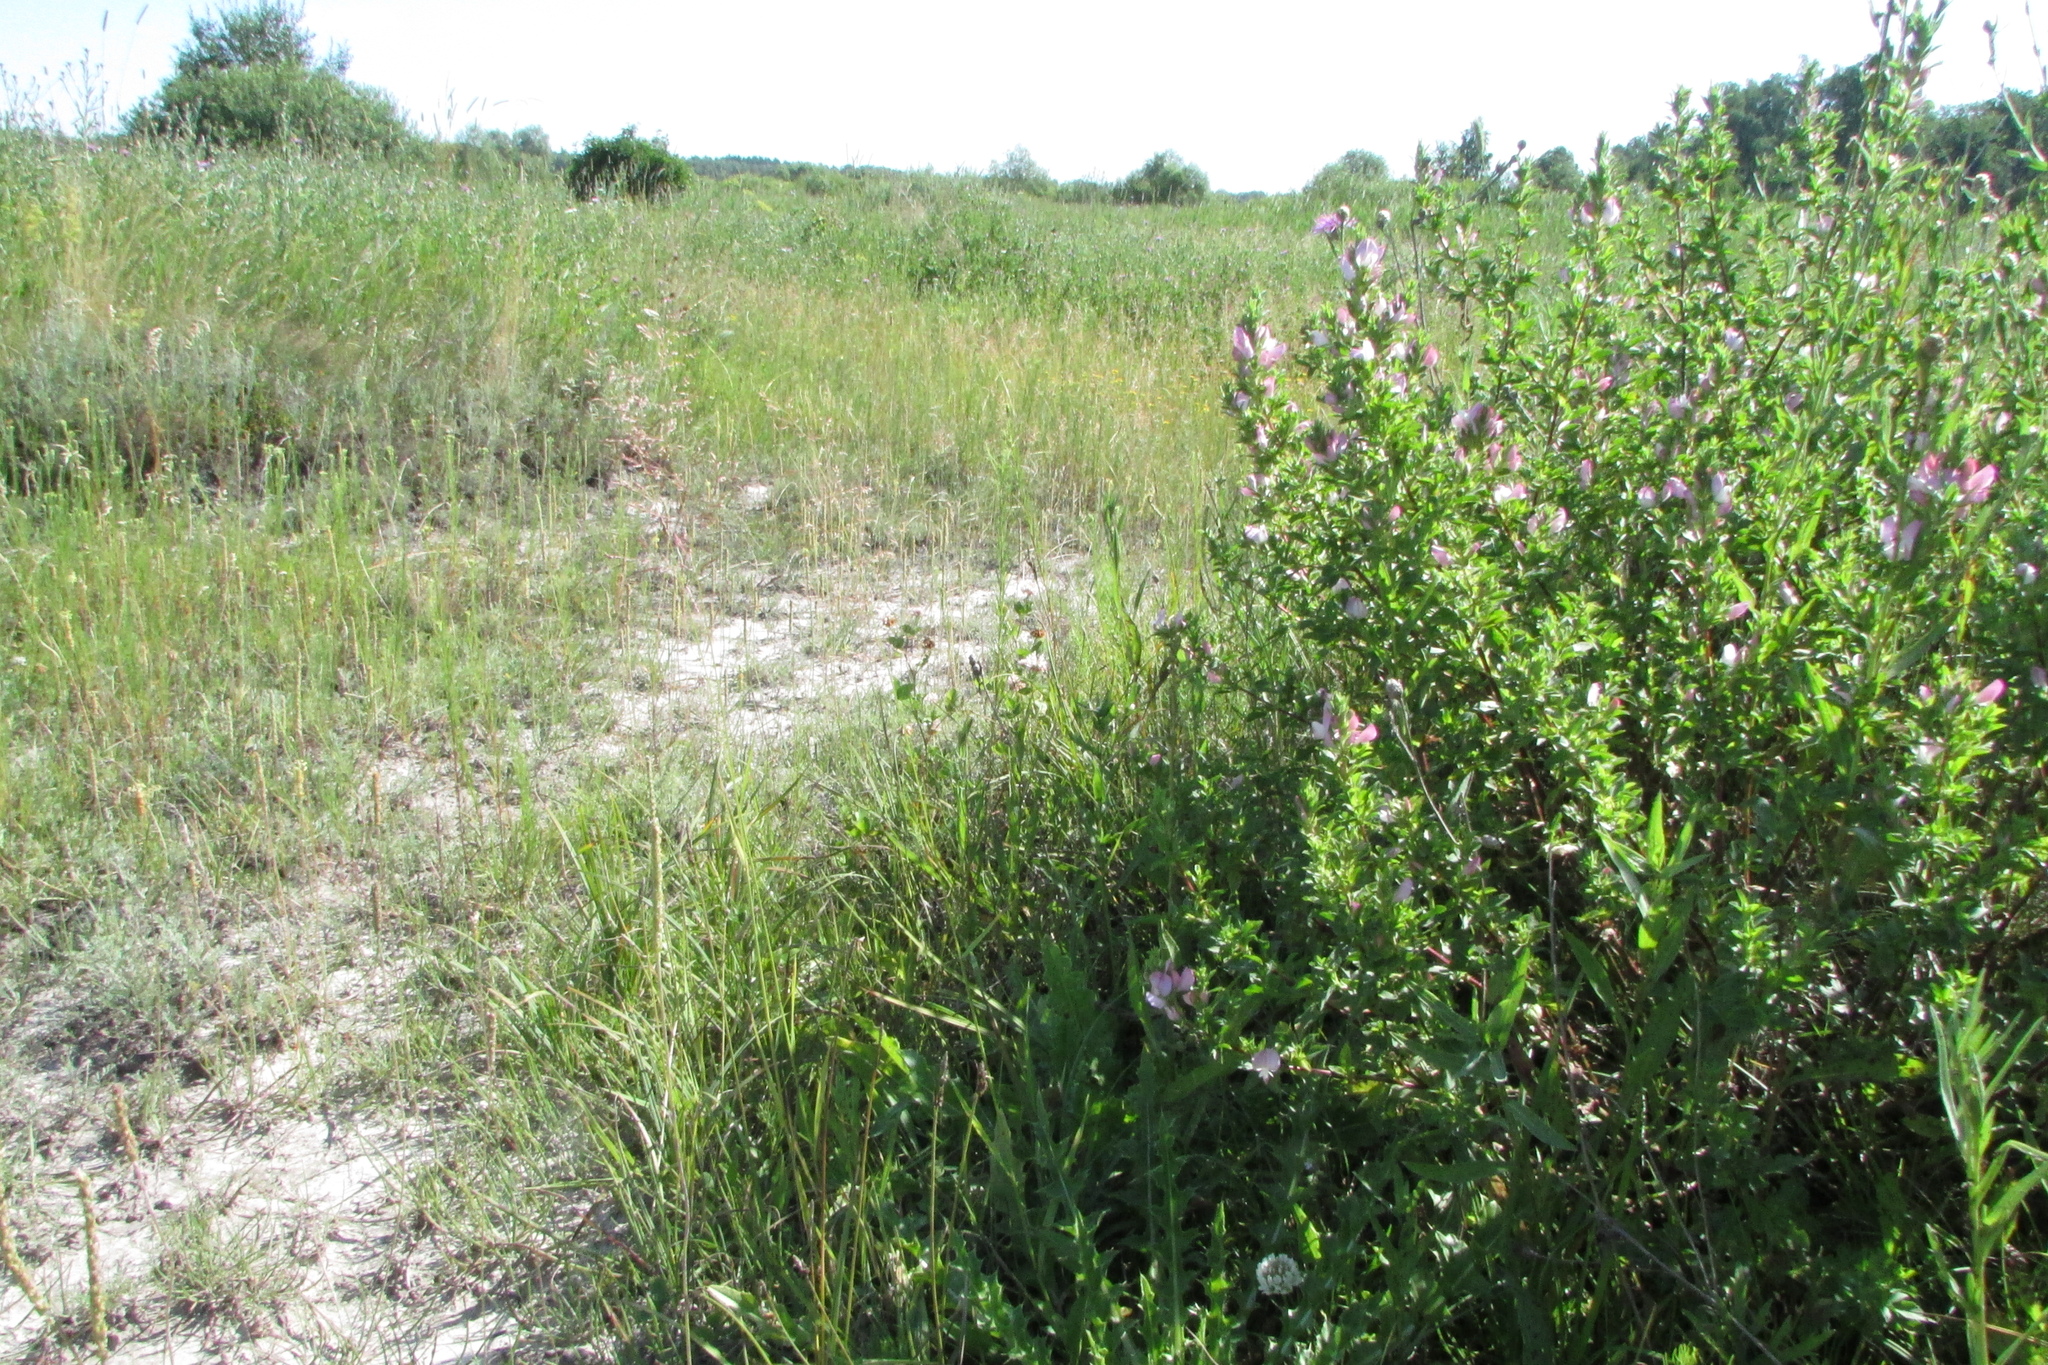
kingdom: Plantae
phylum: Tracheophyta
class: Magnoliopsida
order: Fabales
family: Fabaceae
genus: Ononis
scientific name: Ononis arvensis
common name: Field restharrow
